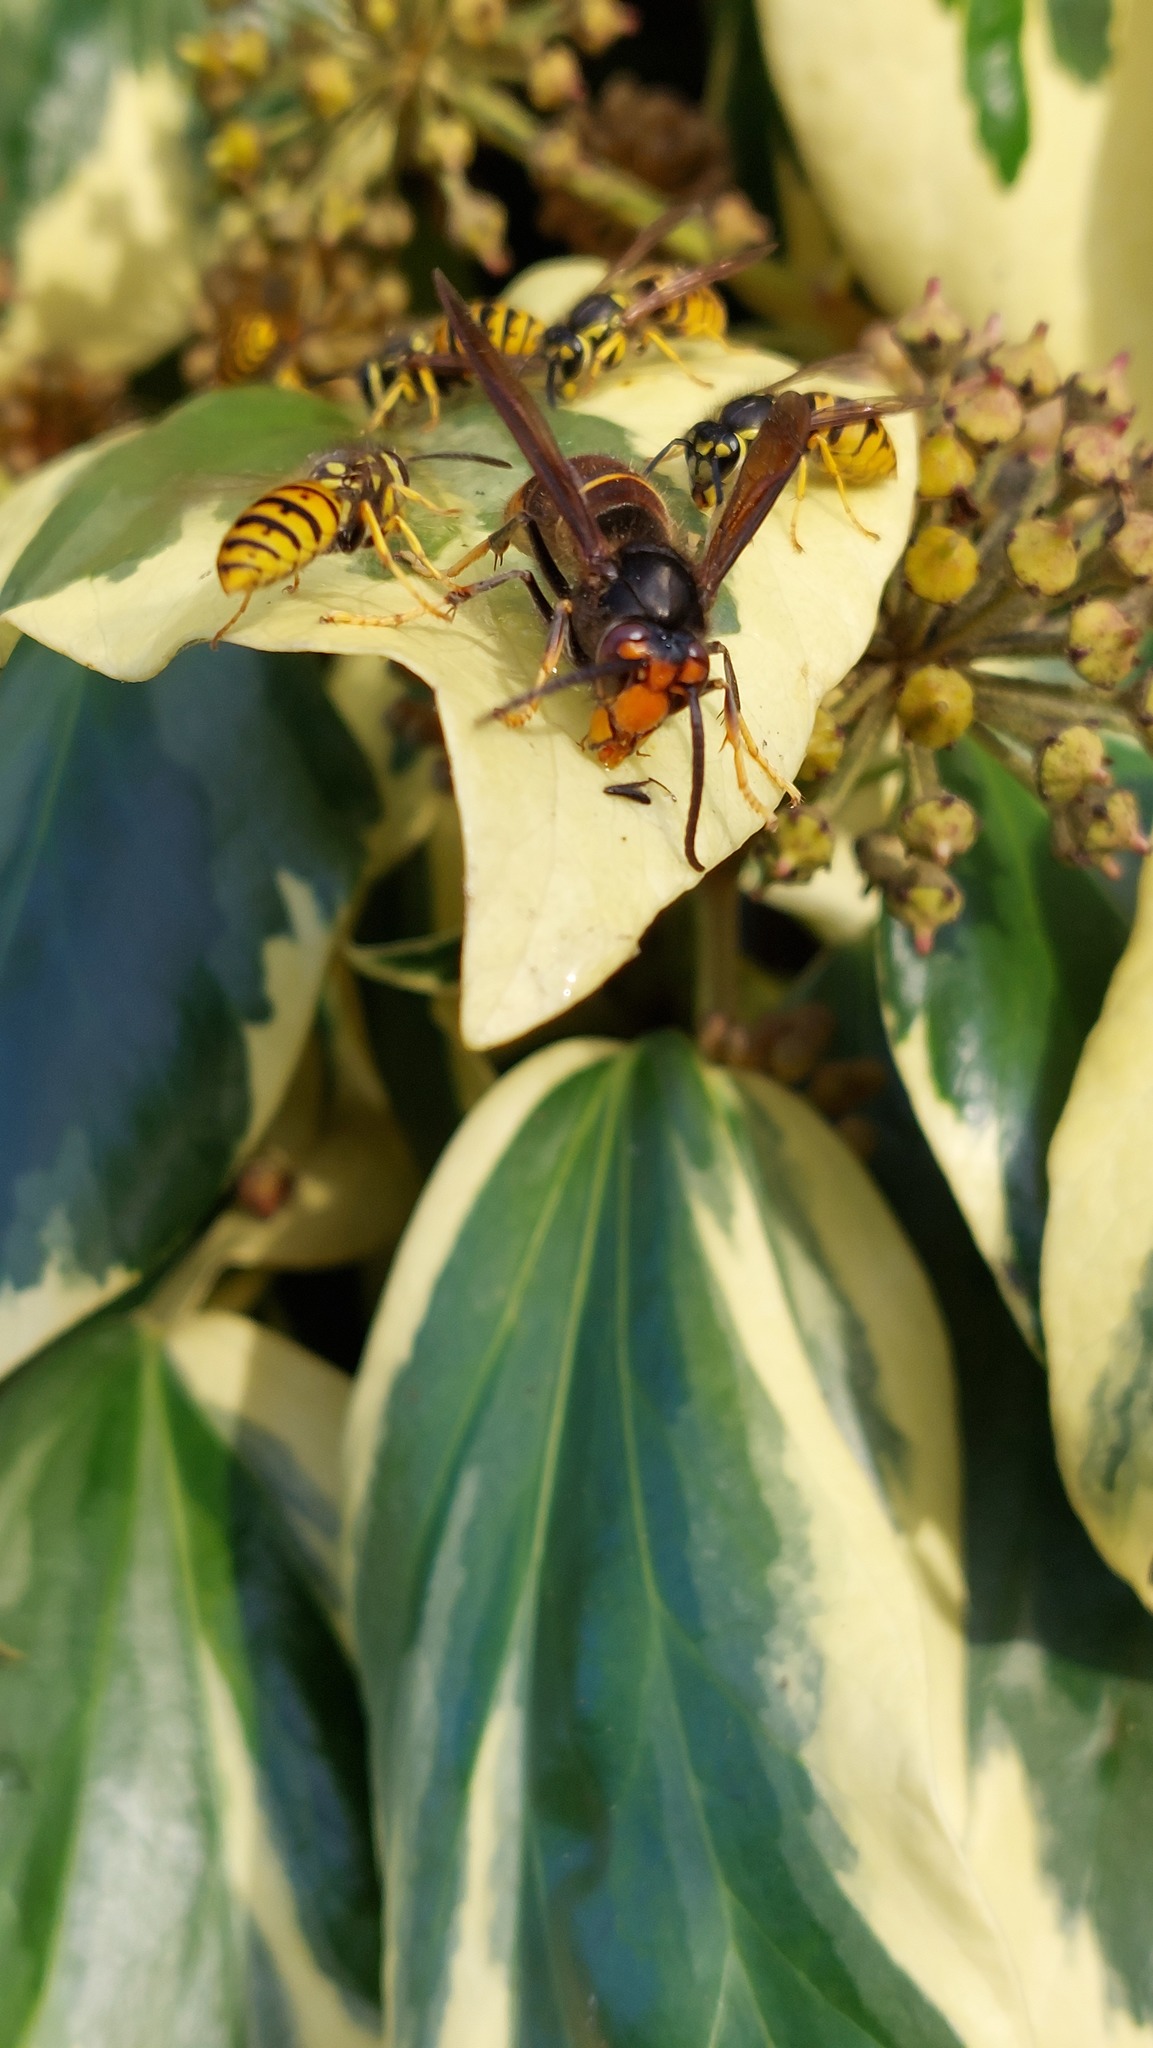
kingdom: Animalia
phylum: Arthropoda
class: Insecta
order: Hymenoptera
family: Vespidae
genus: Vespa
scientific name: Vespa velutina
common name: Asian hornet
